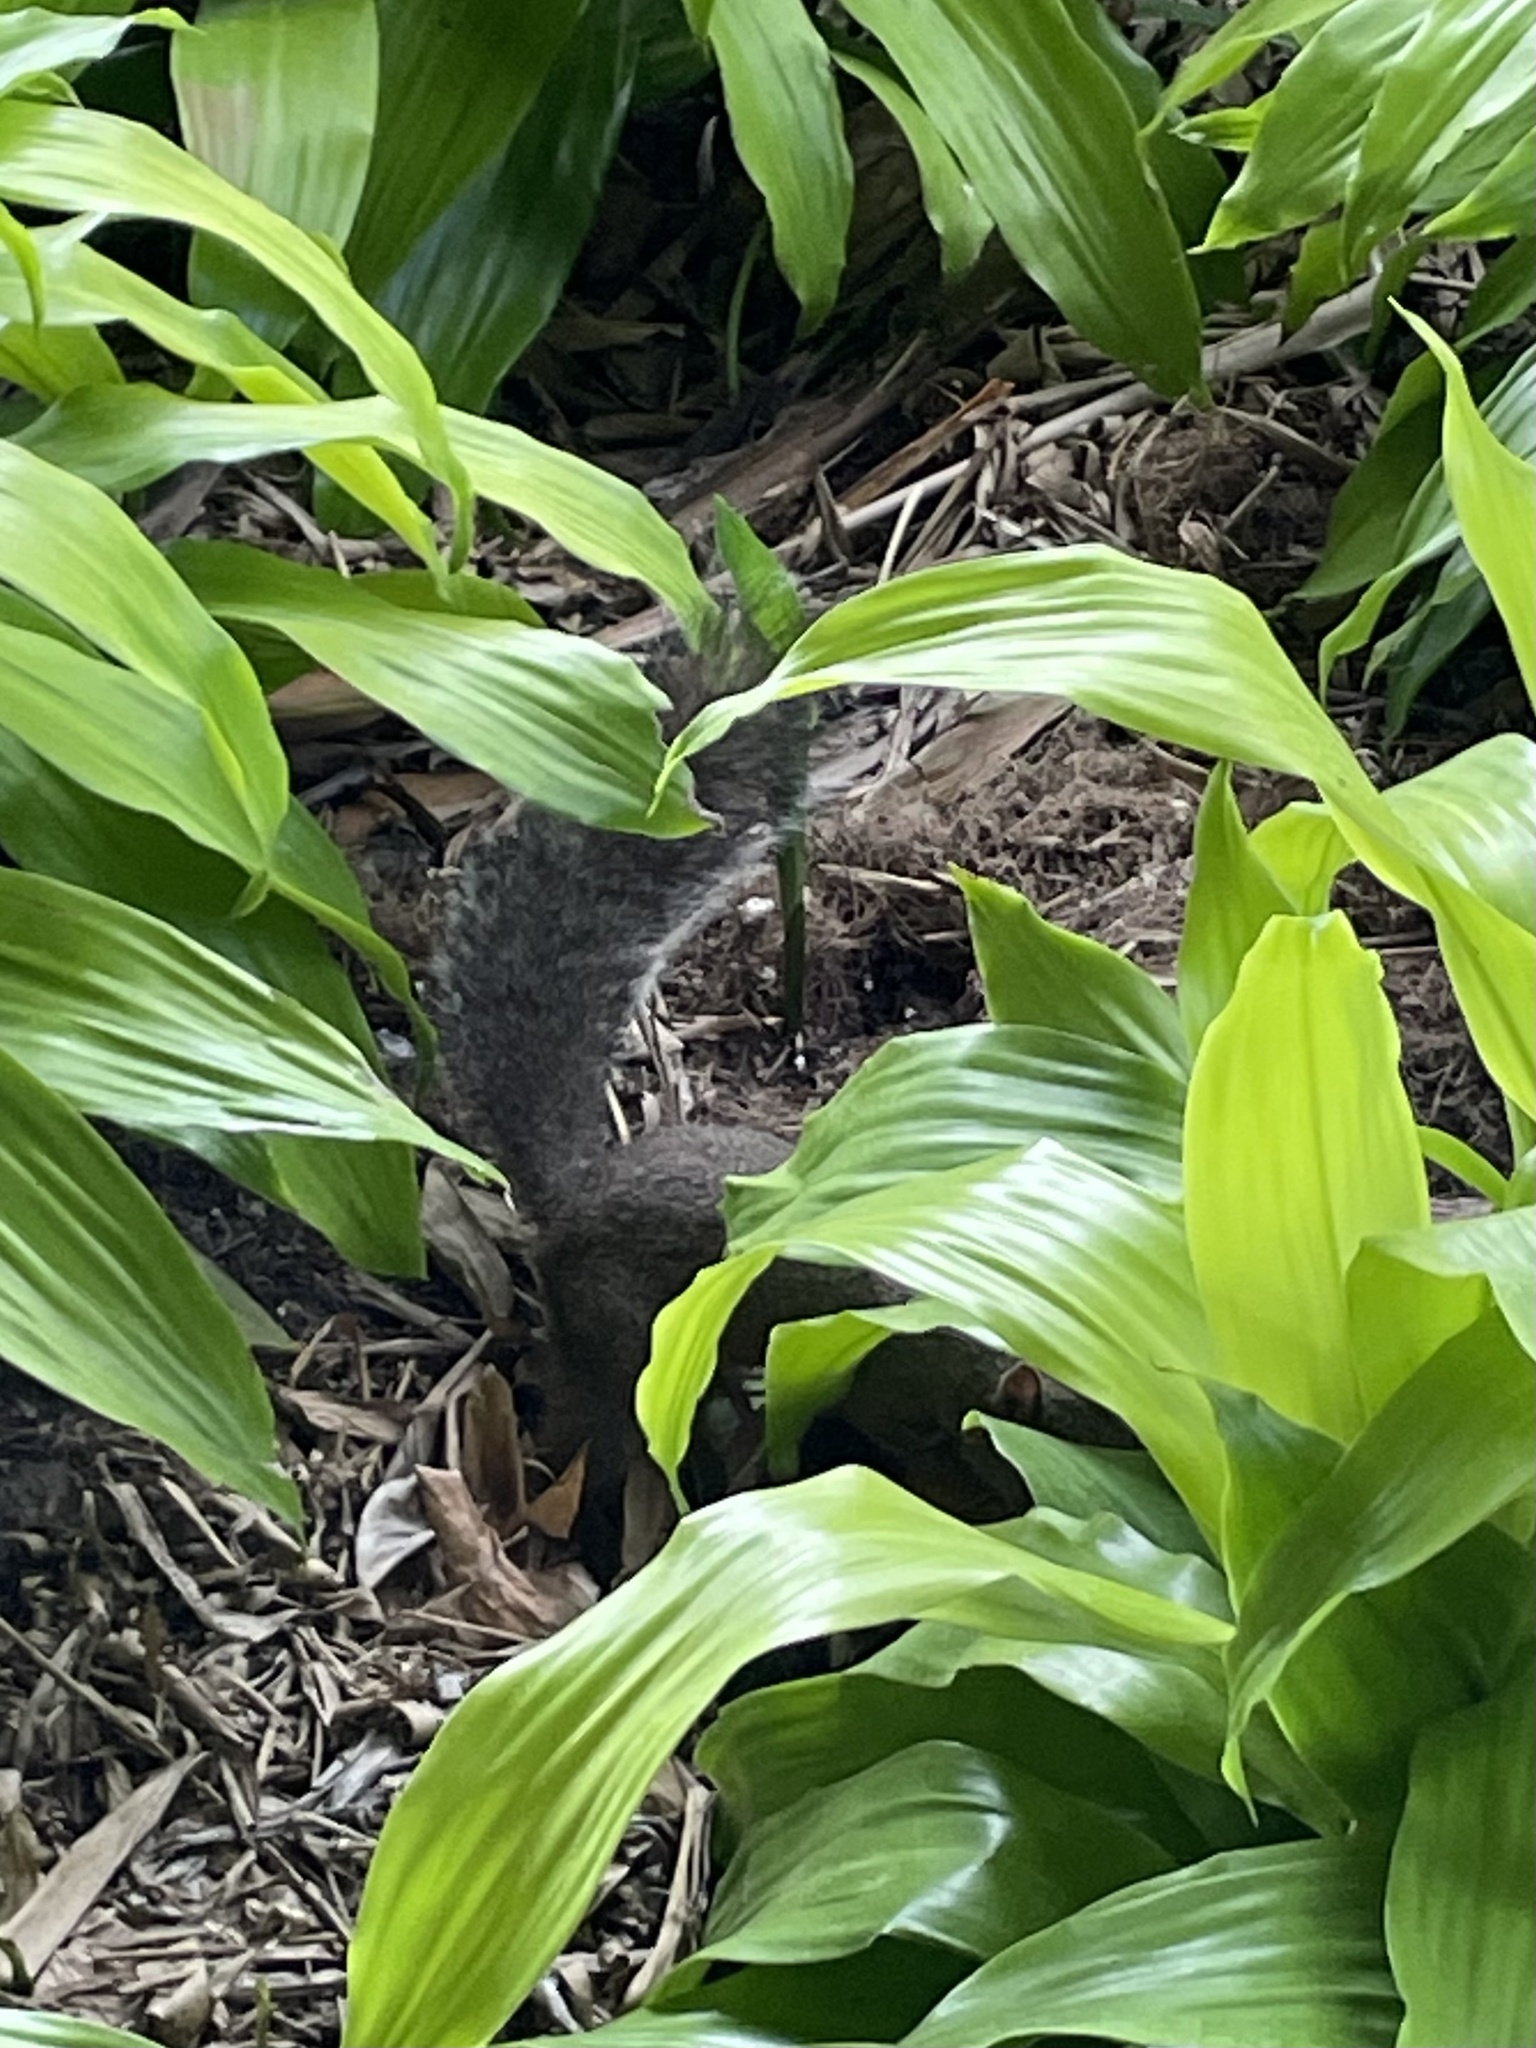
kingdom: Animalia
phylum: Chordata
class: Mammalia
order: Rodentia
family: Sciuridae
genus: Sciurus
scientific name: Sciurus carolinensis
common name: Eastern gray squirrel
